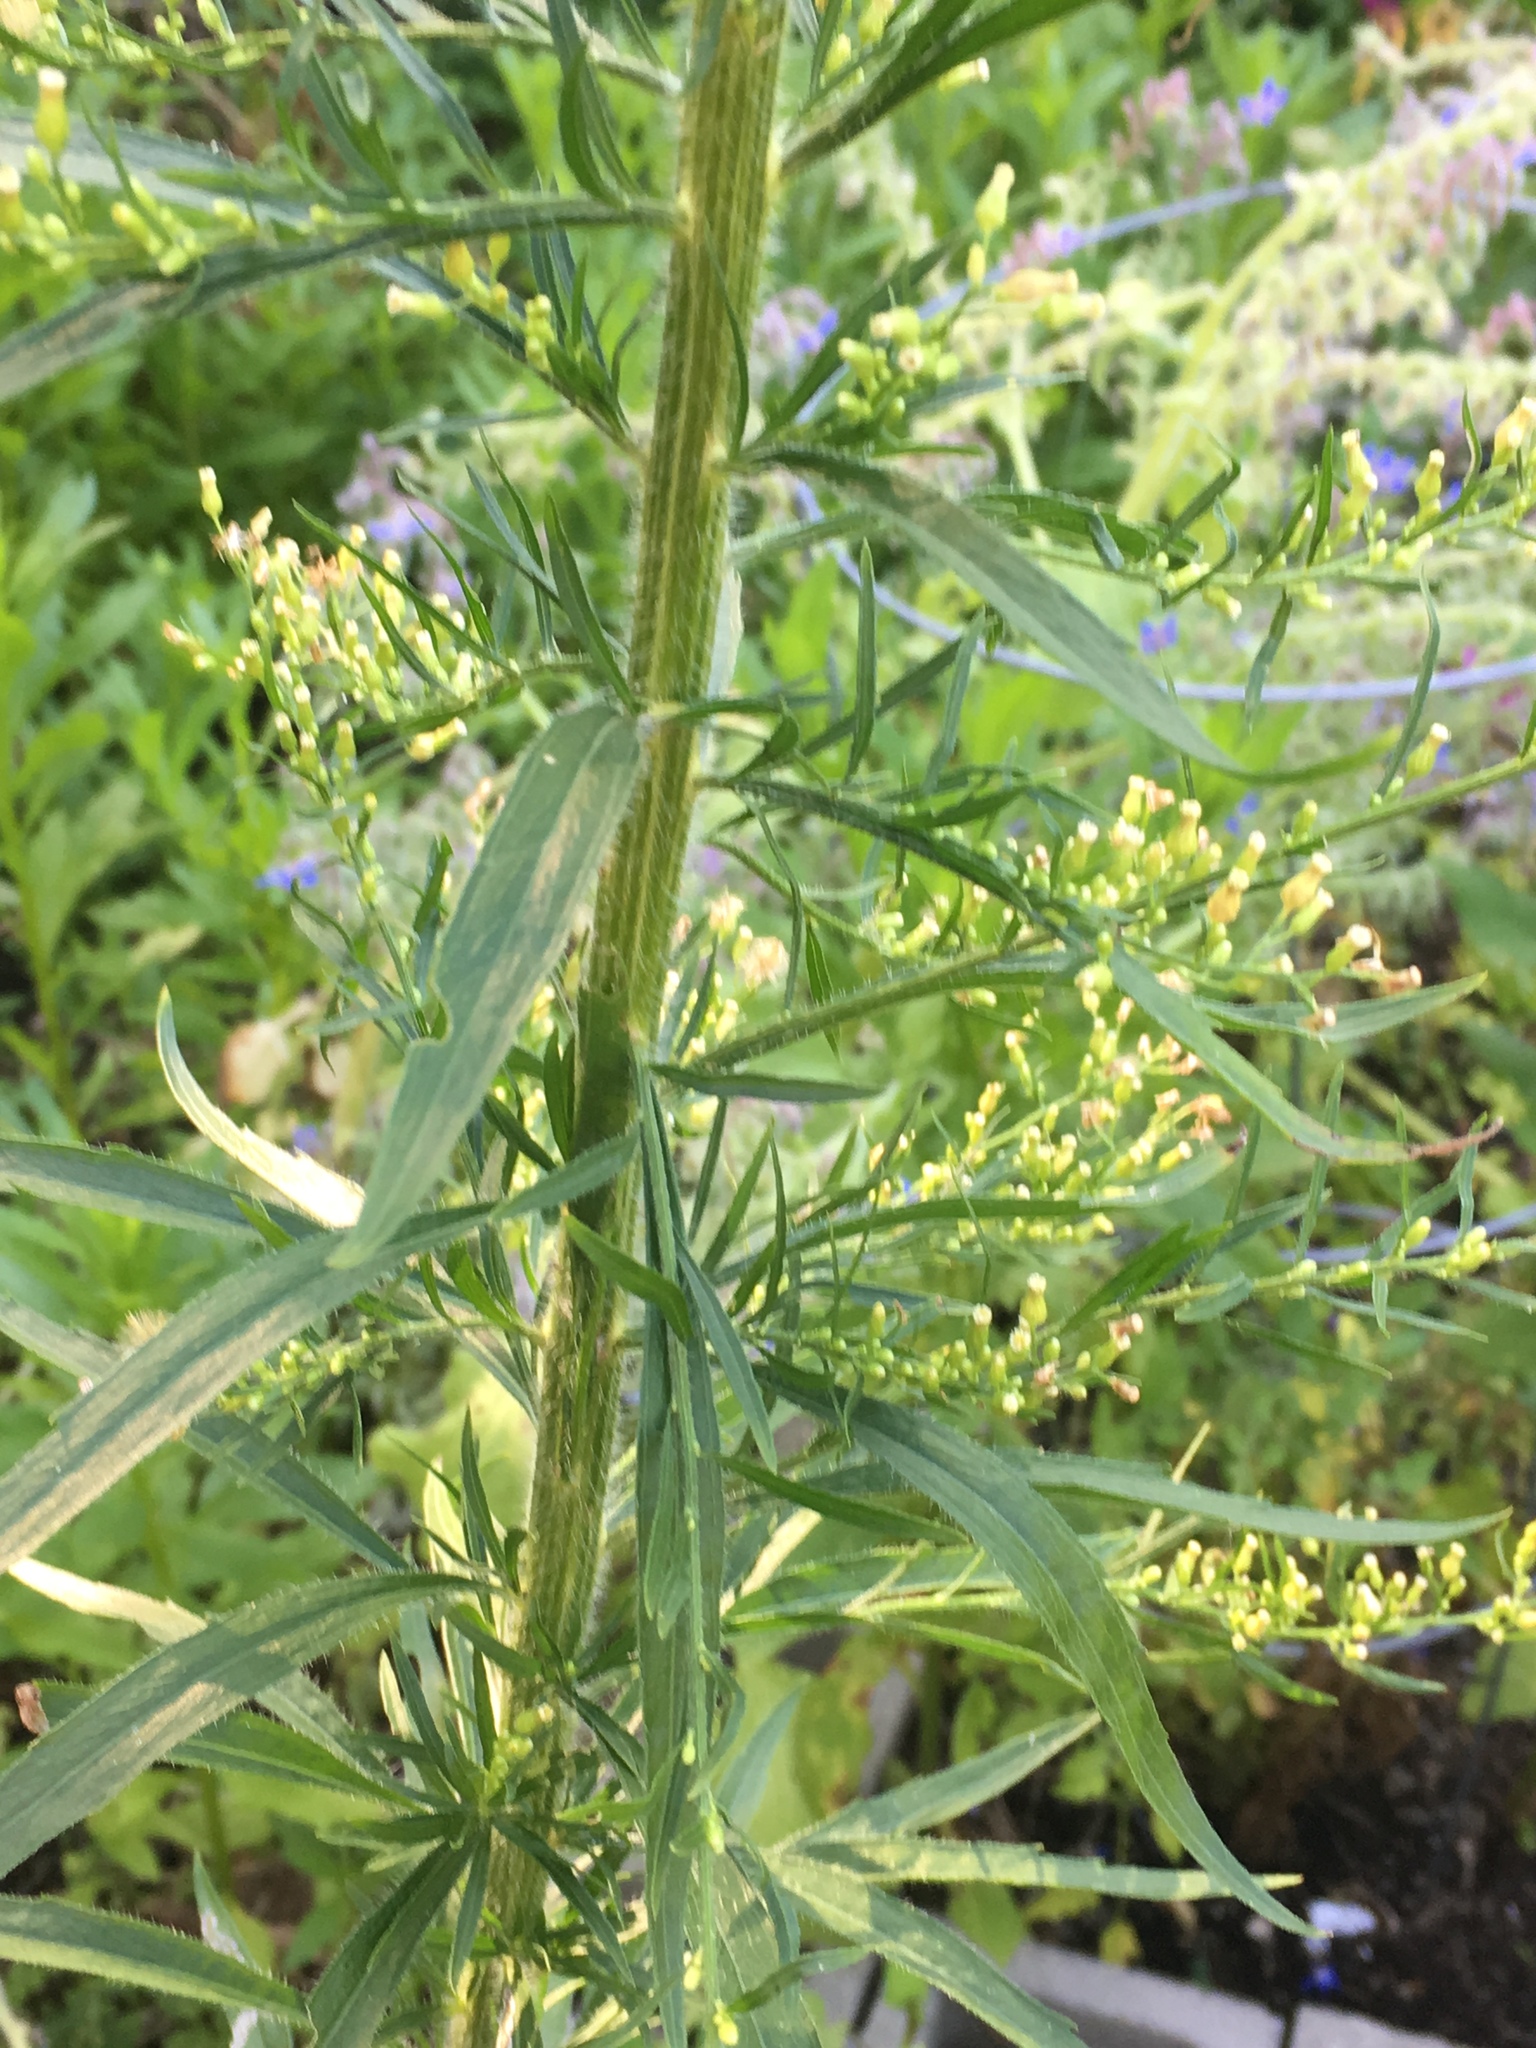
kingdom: Plantae
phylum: Tracheophyta
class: Magnoliopsida
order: Asterales
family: Asteraceae
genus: Erigeron
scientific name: Erigeron canadensis
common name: Canadian fleabane
